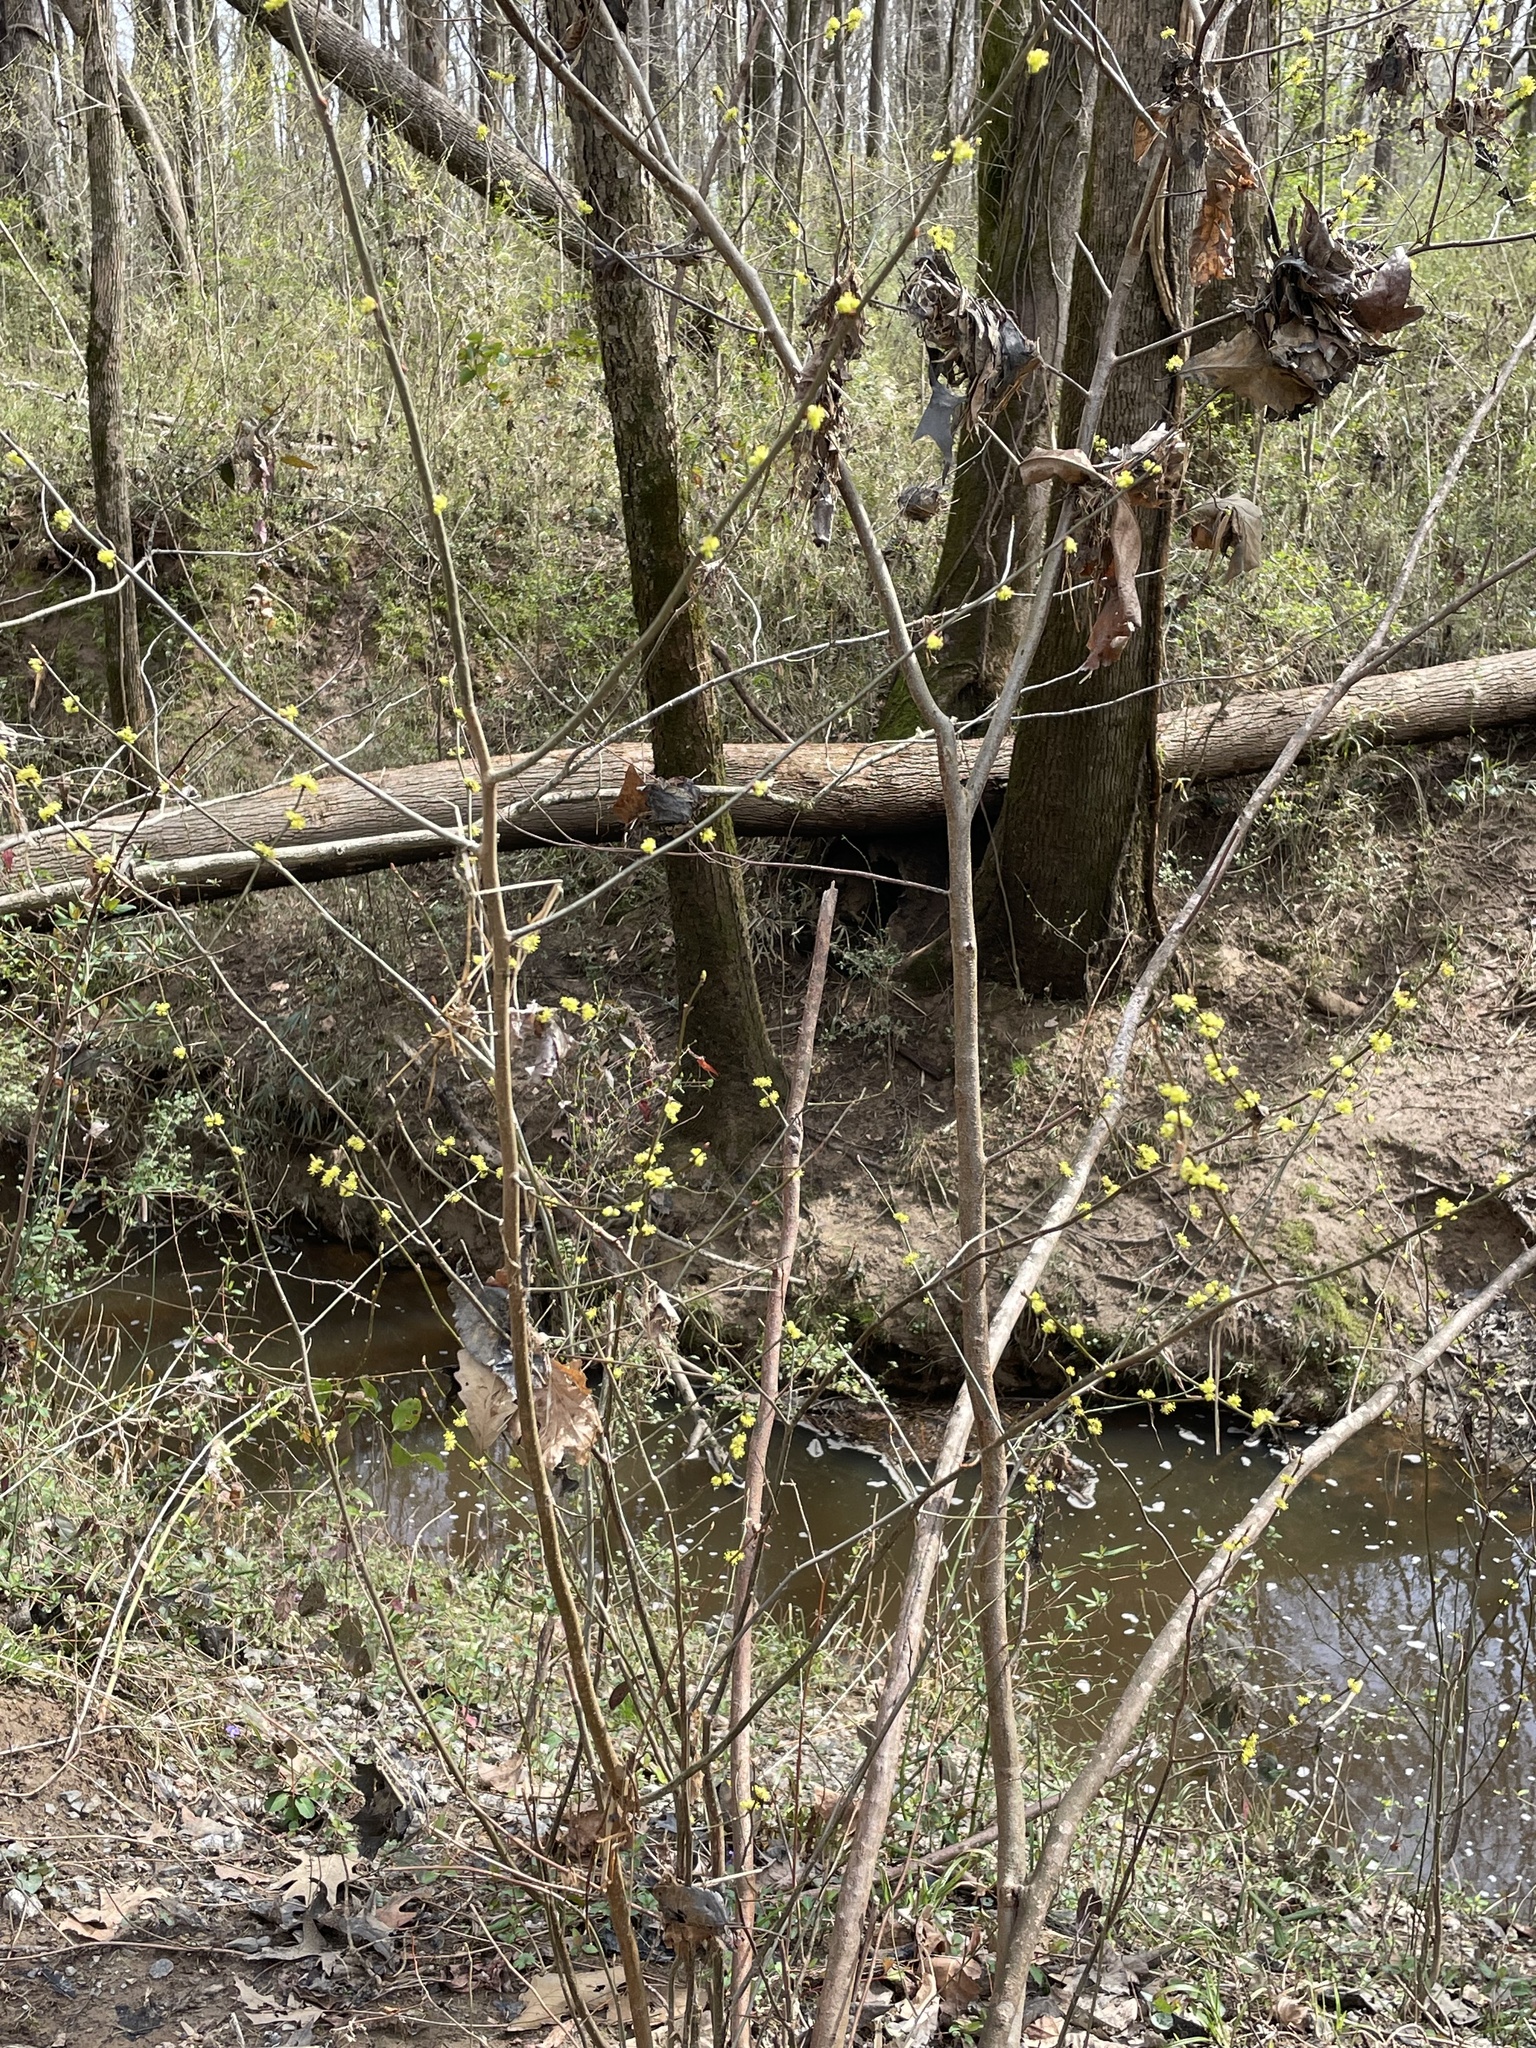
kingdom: Plantae
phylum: Tracheophyta
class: Magnoliopsida
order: Laurales
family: Lauraceae
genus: Lindera
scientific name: Lindera benzoin
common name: Spicebush
